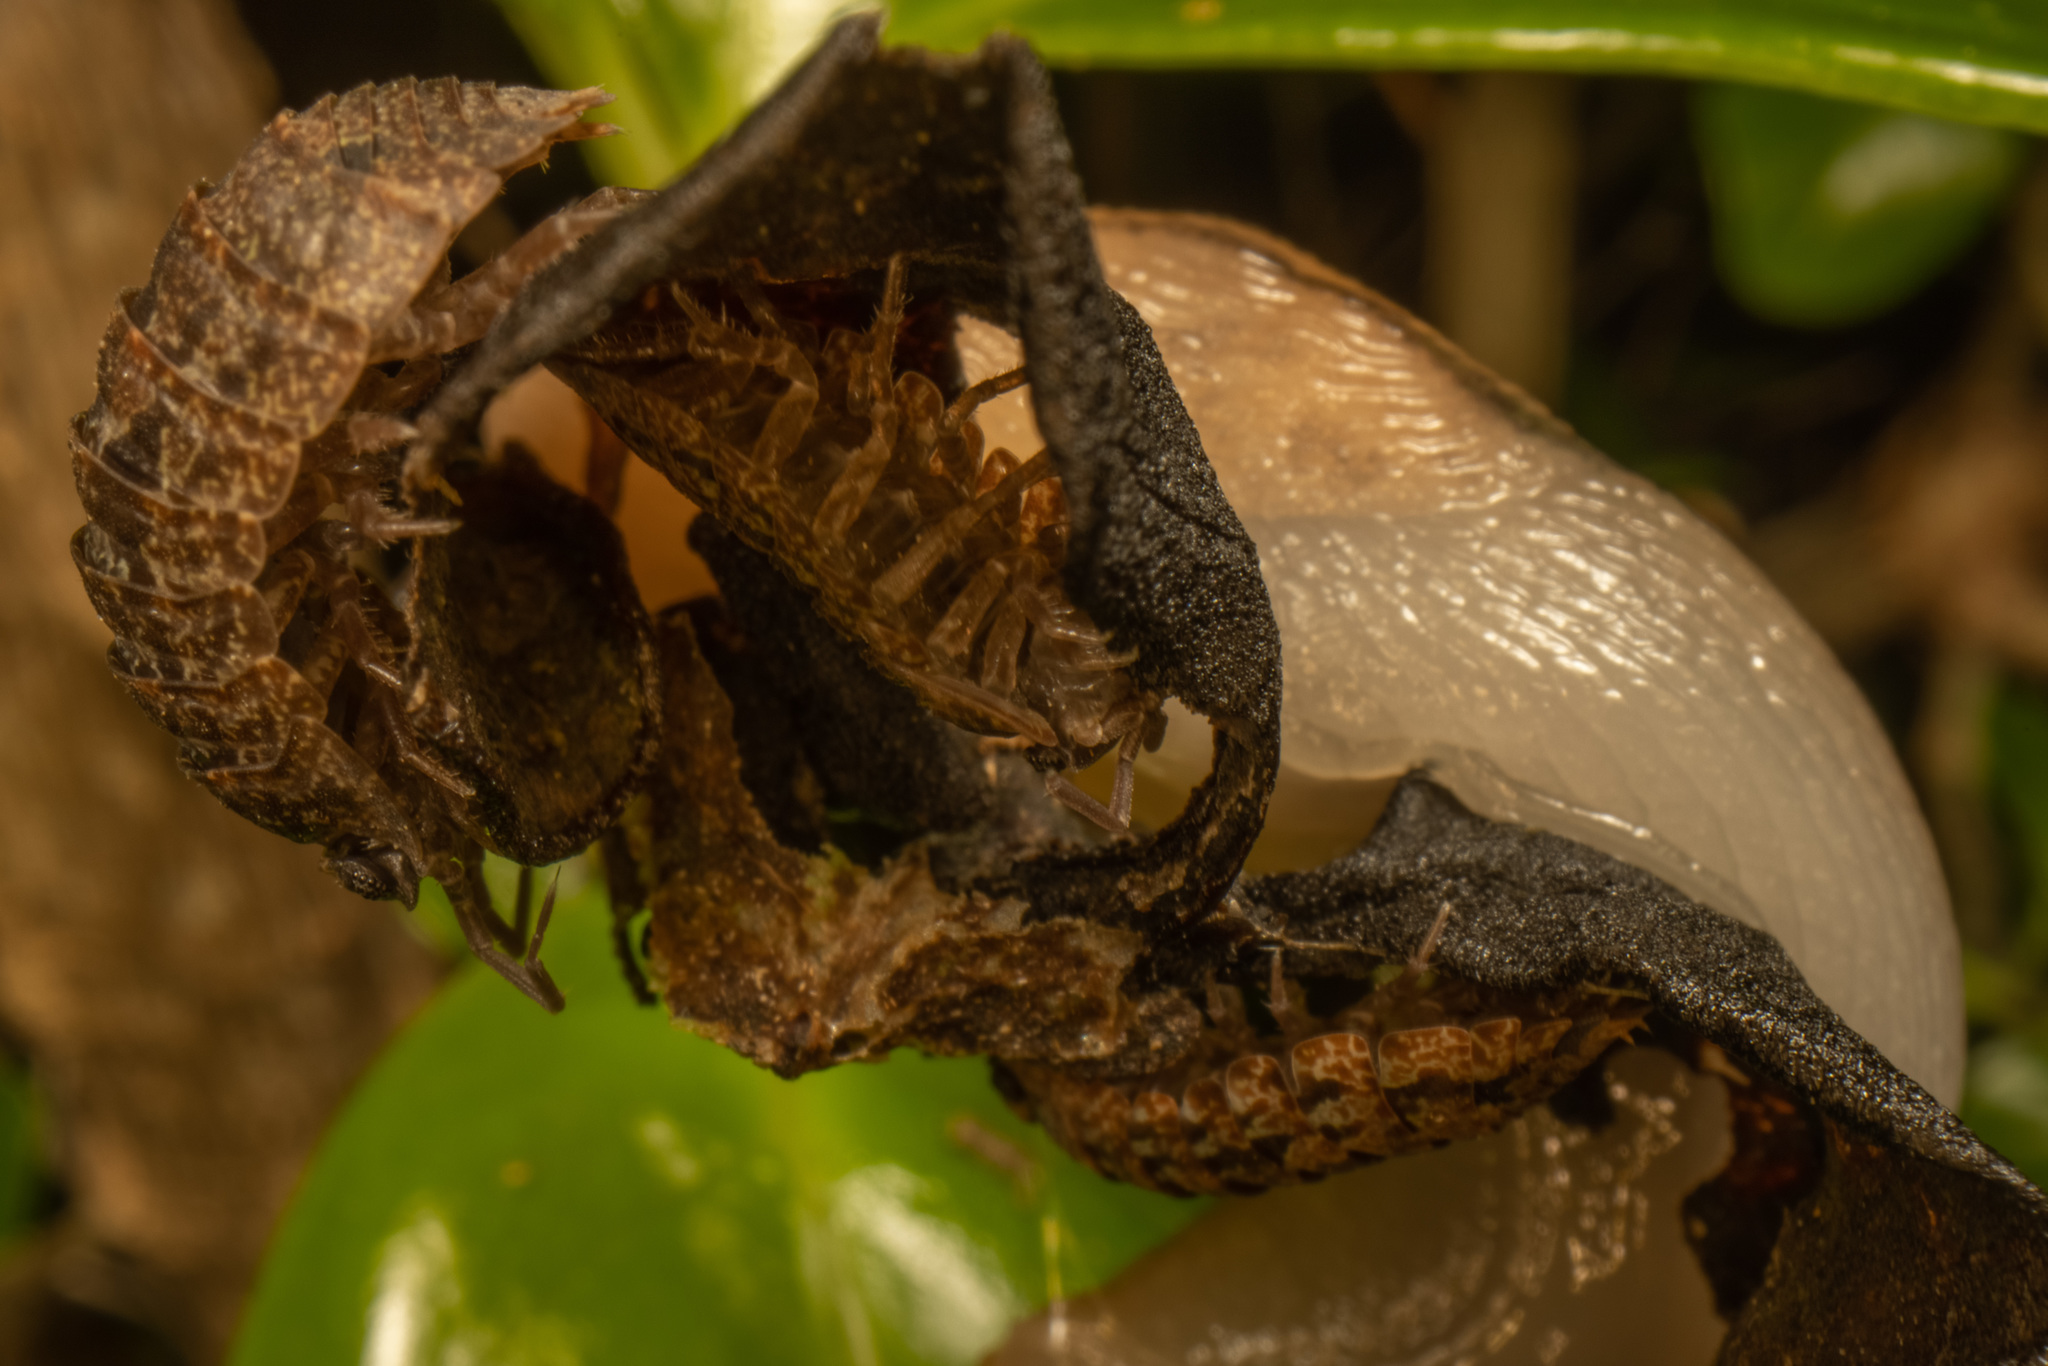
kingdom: Animalia
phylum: Arthropoda
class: Malacostraca
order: Isopoda
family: Armadillidae
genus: Cubaris
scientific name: Cubaris tarangensis
